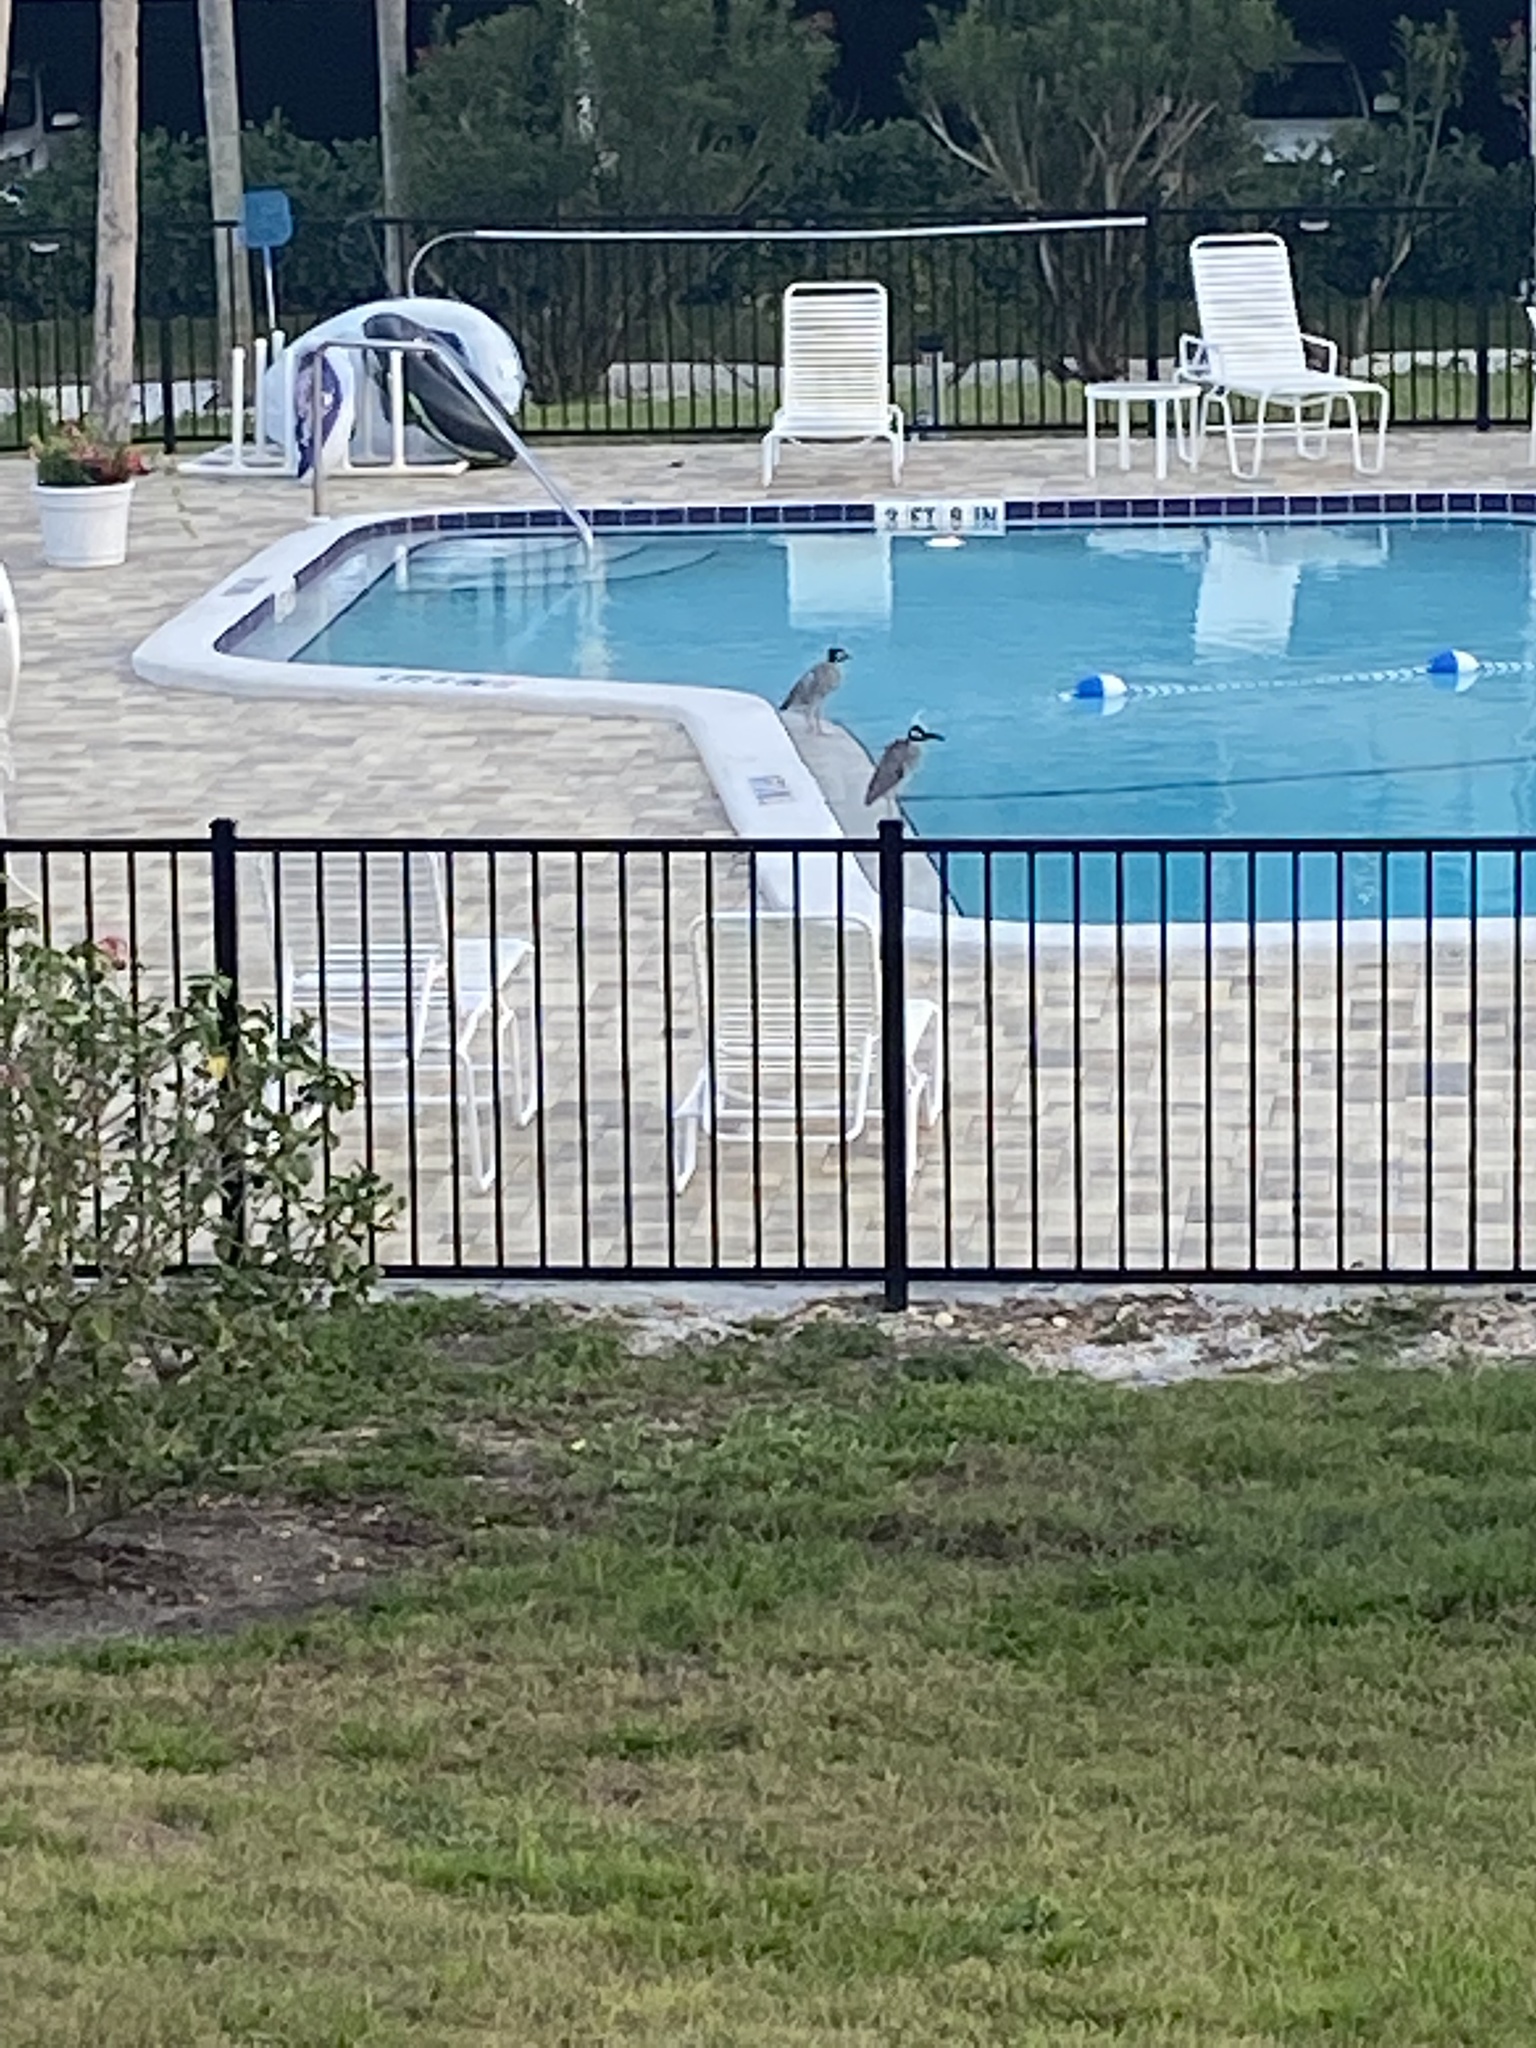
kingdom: Animalia
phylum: Chordata
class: Aves
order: Pelecaniformes
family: Ardeidae
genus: Nyctanassa
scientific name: Nyctanassa violacea
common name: Yellow-crowned night heron
